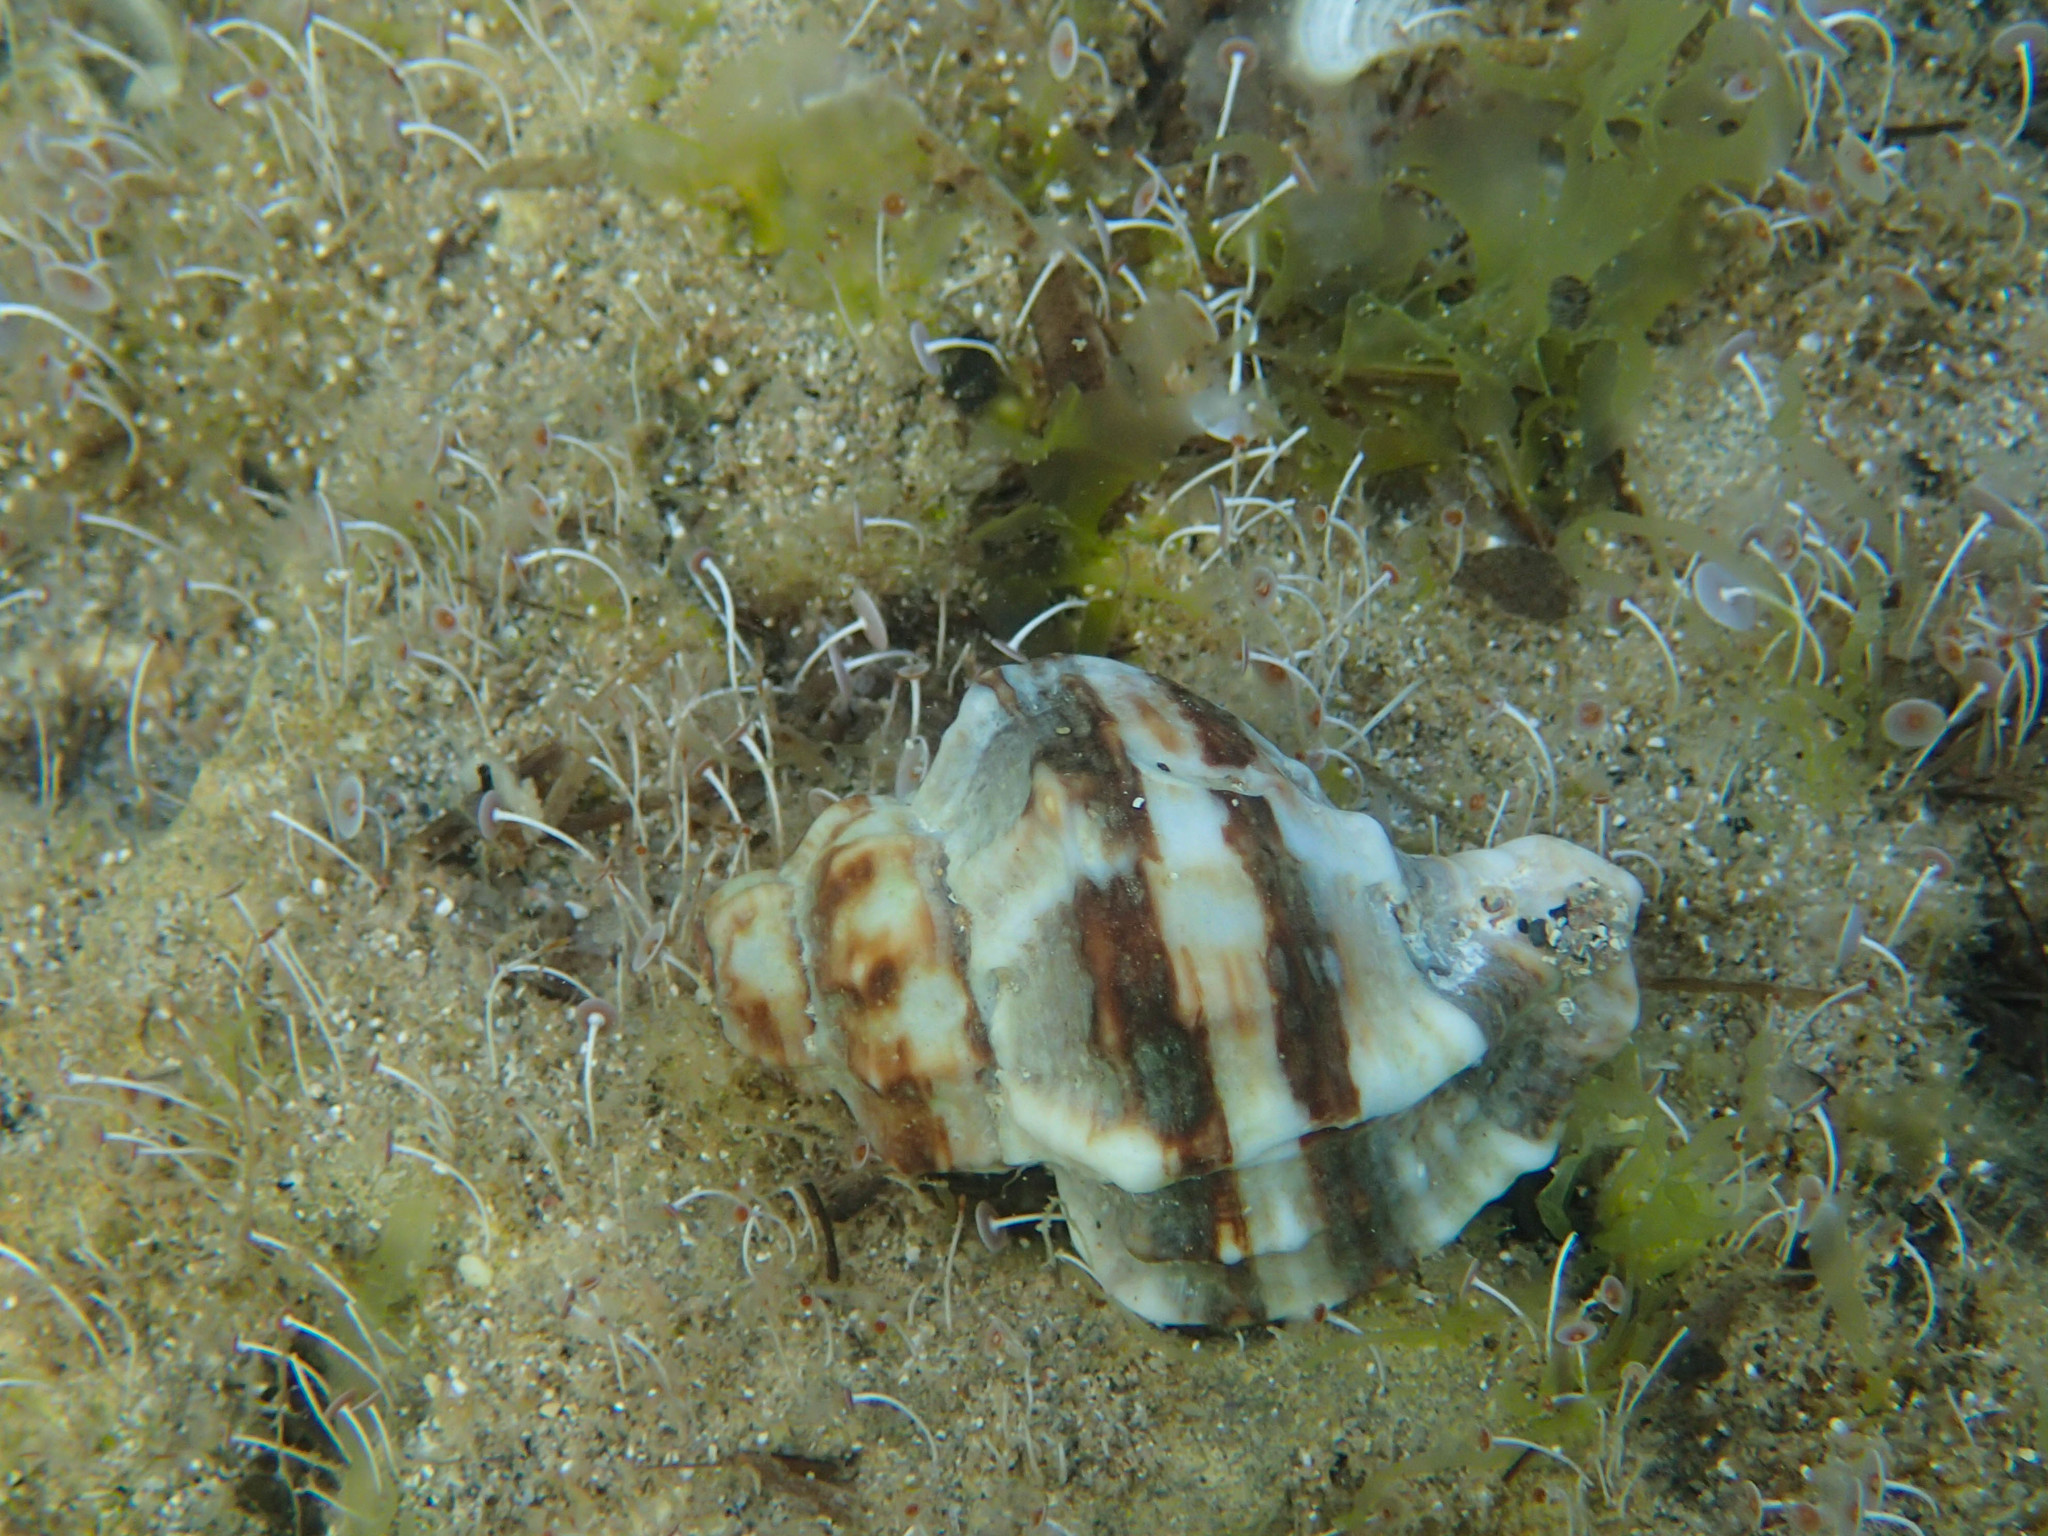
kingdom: Animalia
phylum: Mollusca
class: Gastropoda
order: Neogastropoda
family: Muricidae
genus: Hexaplex
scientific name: Hexaplex trunculus
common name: Banded dye-murex
